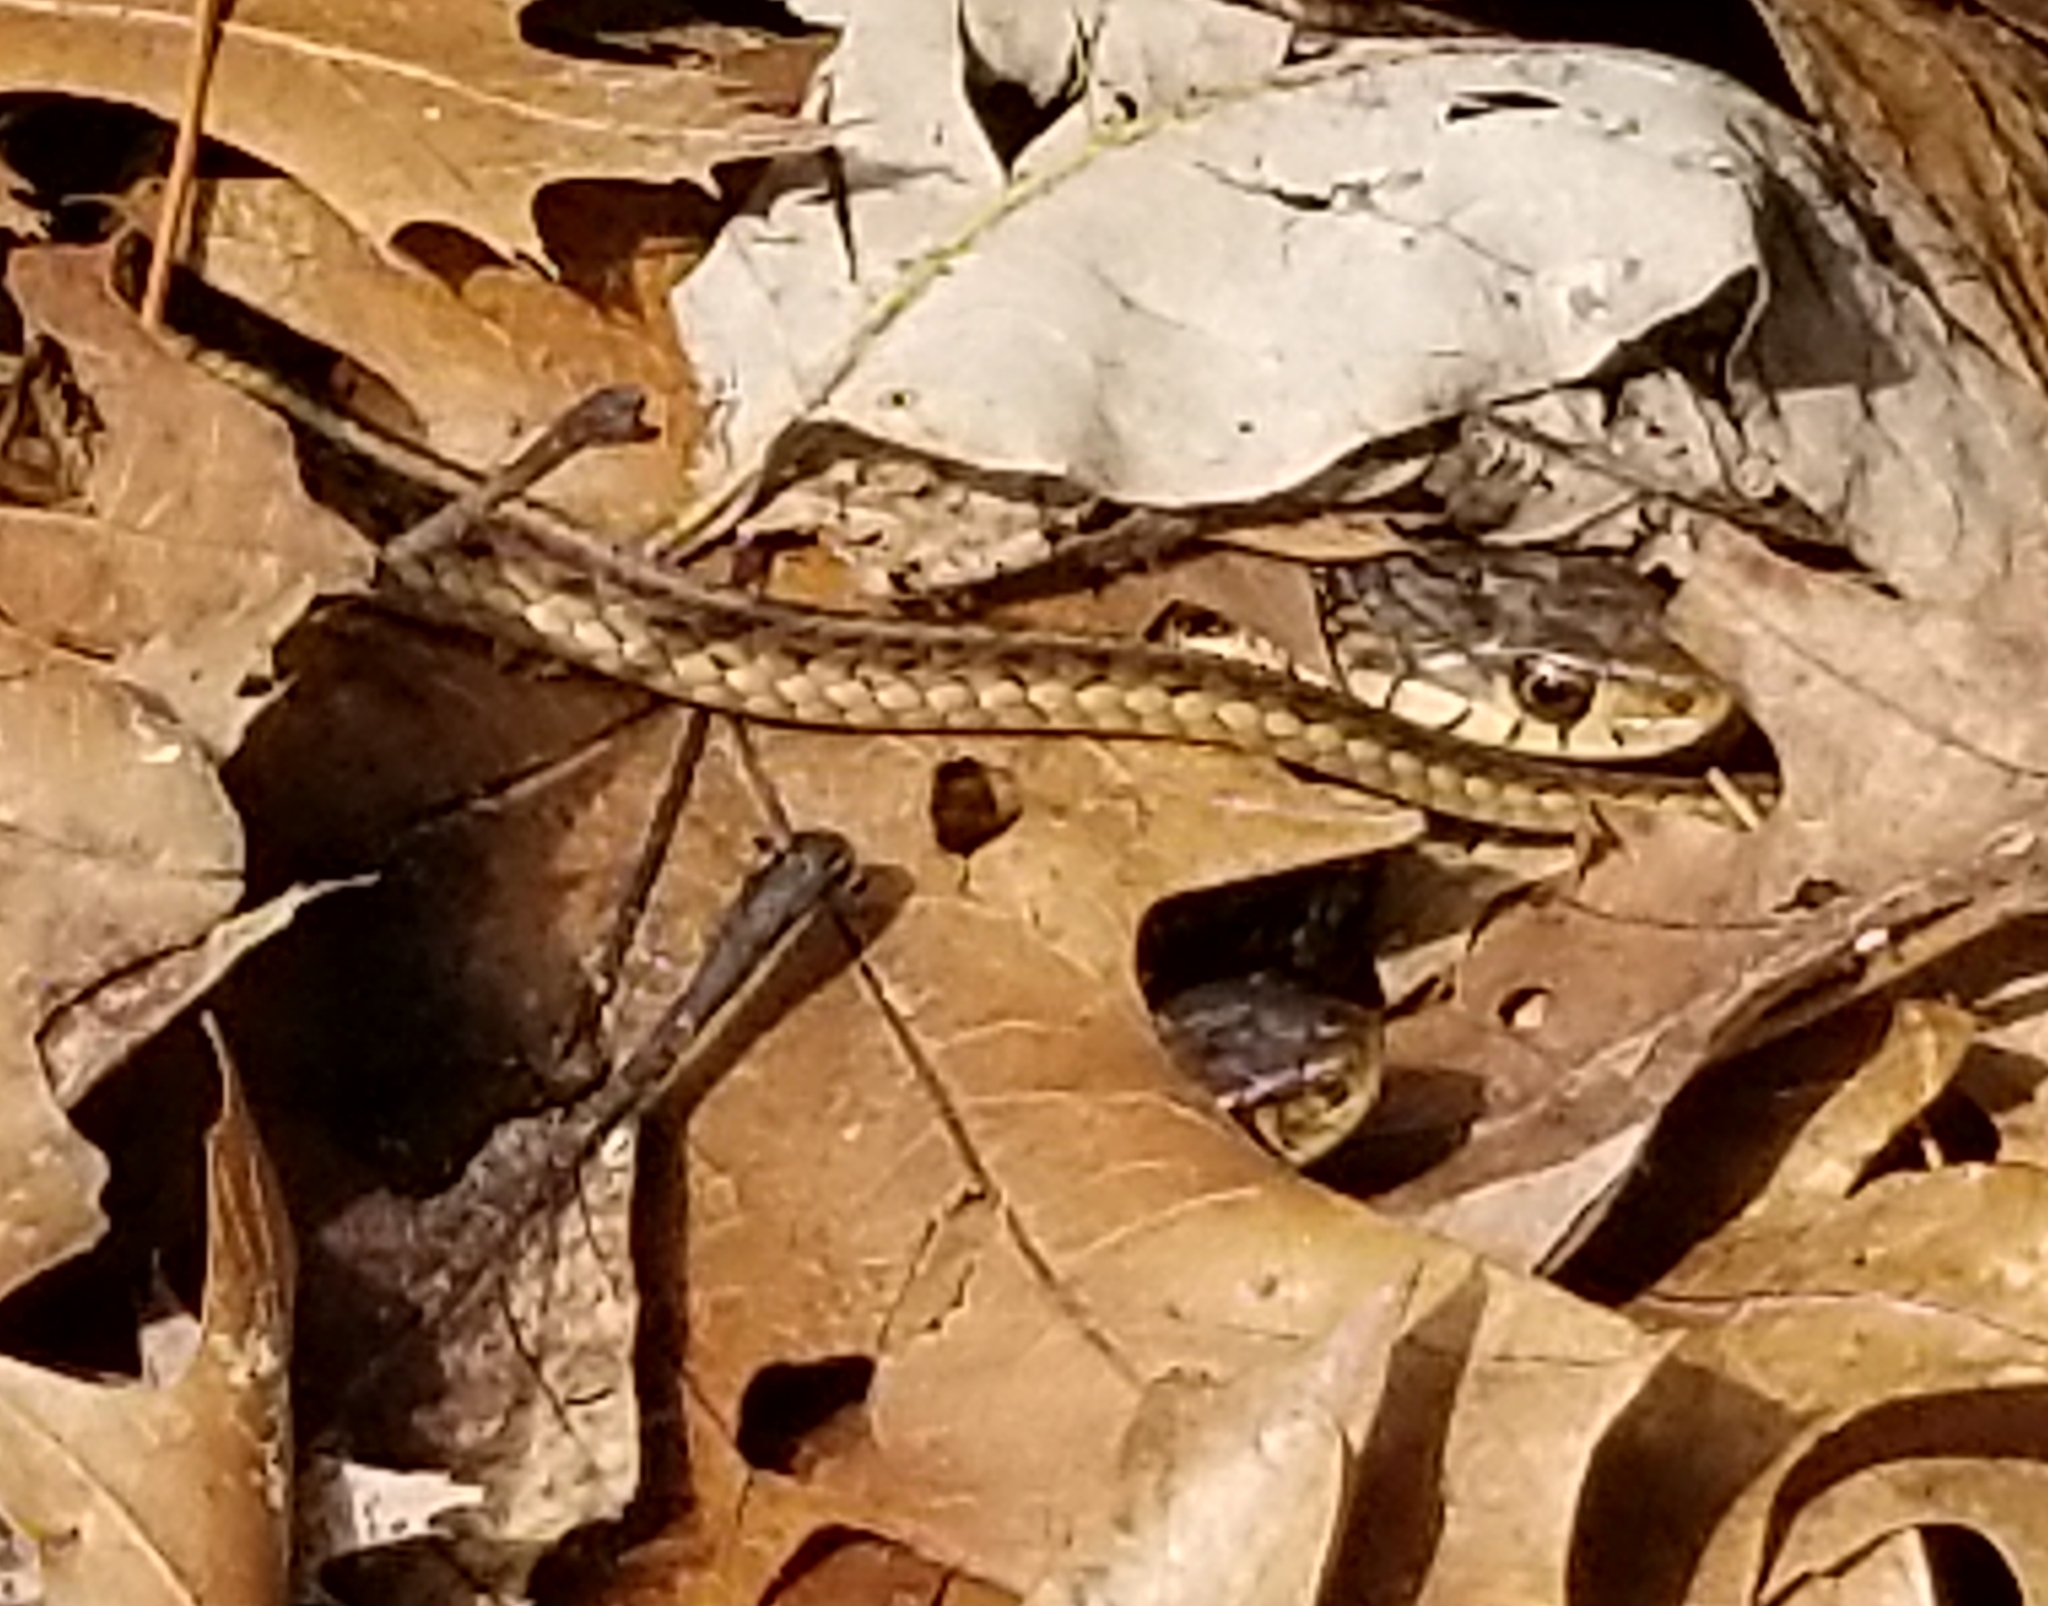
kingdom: Animalia
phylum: Chordata
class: Squamata
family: Colubridae
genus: Thamnophis
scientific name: Thamnophis sirtalis
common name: Common garter snake
